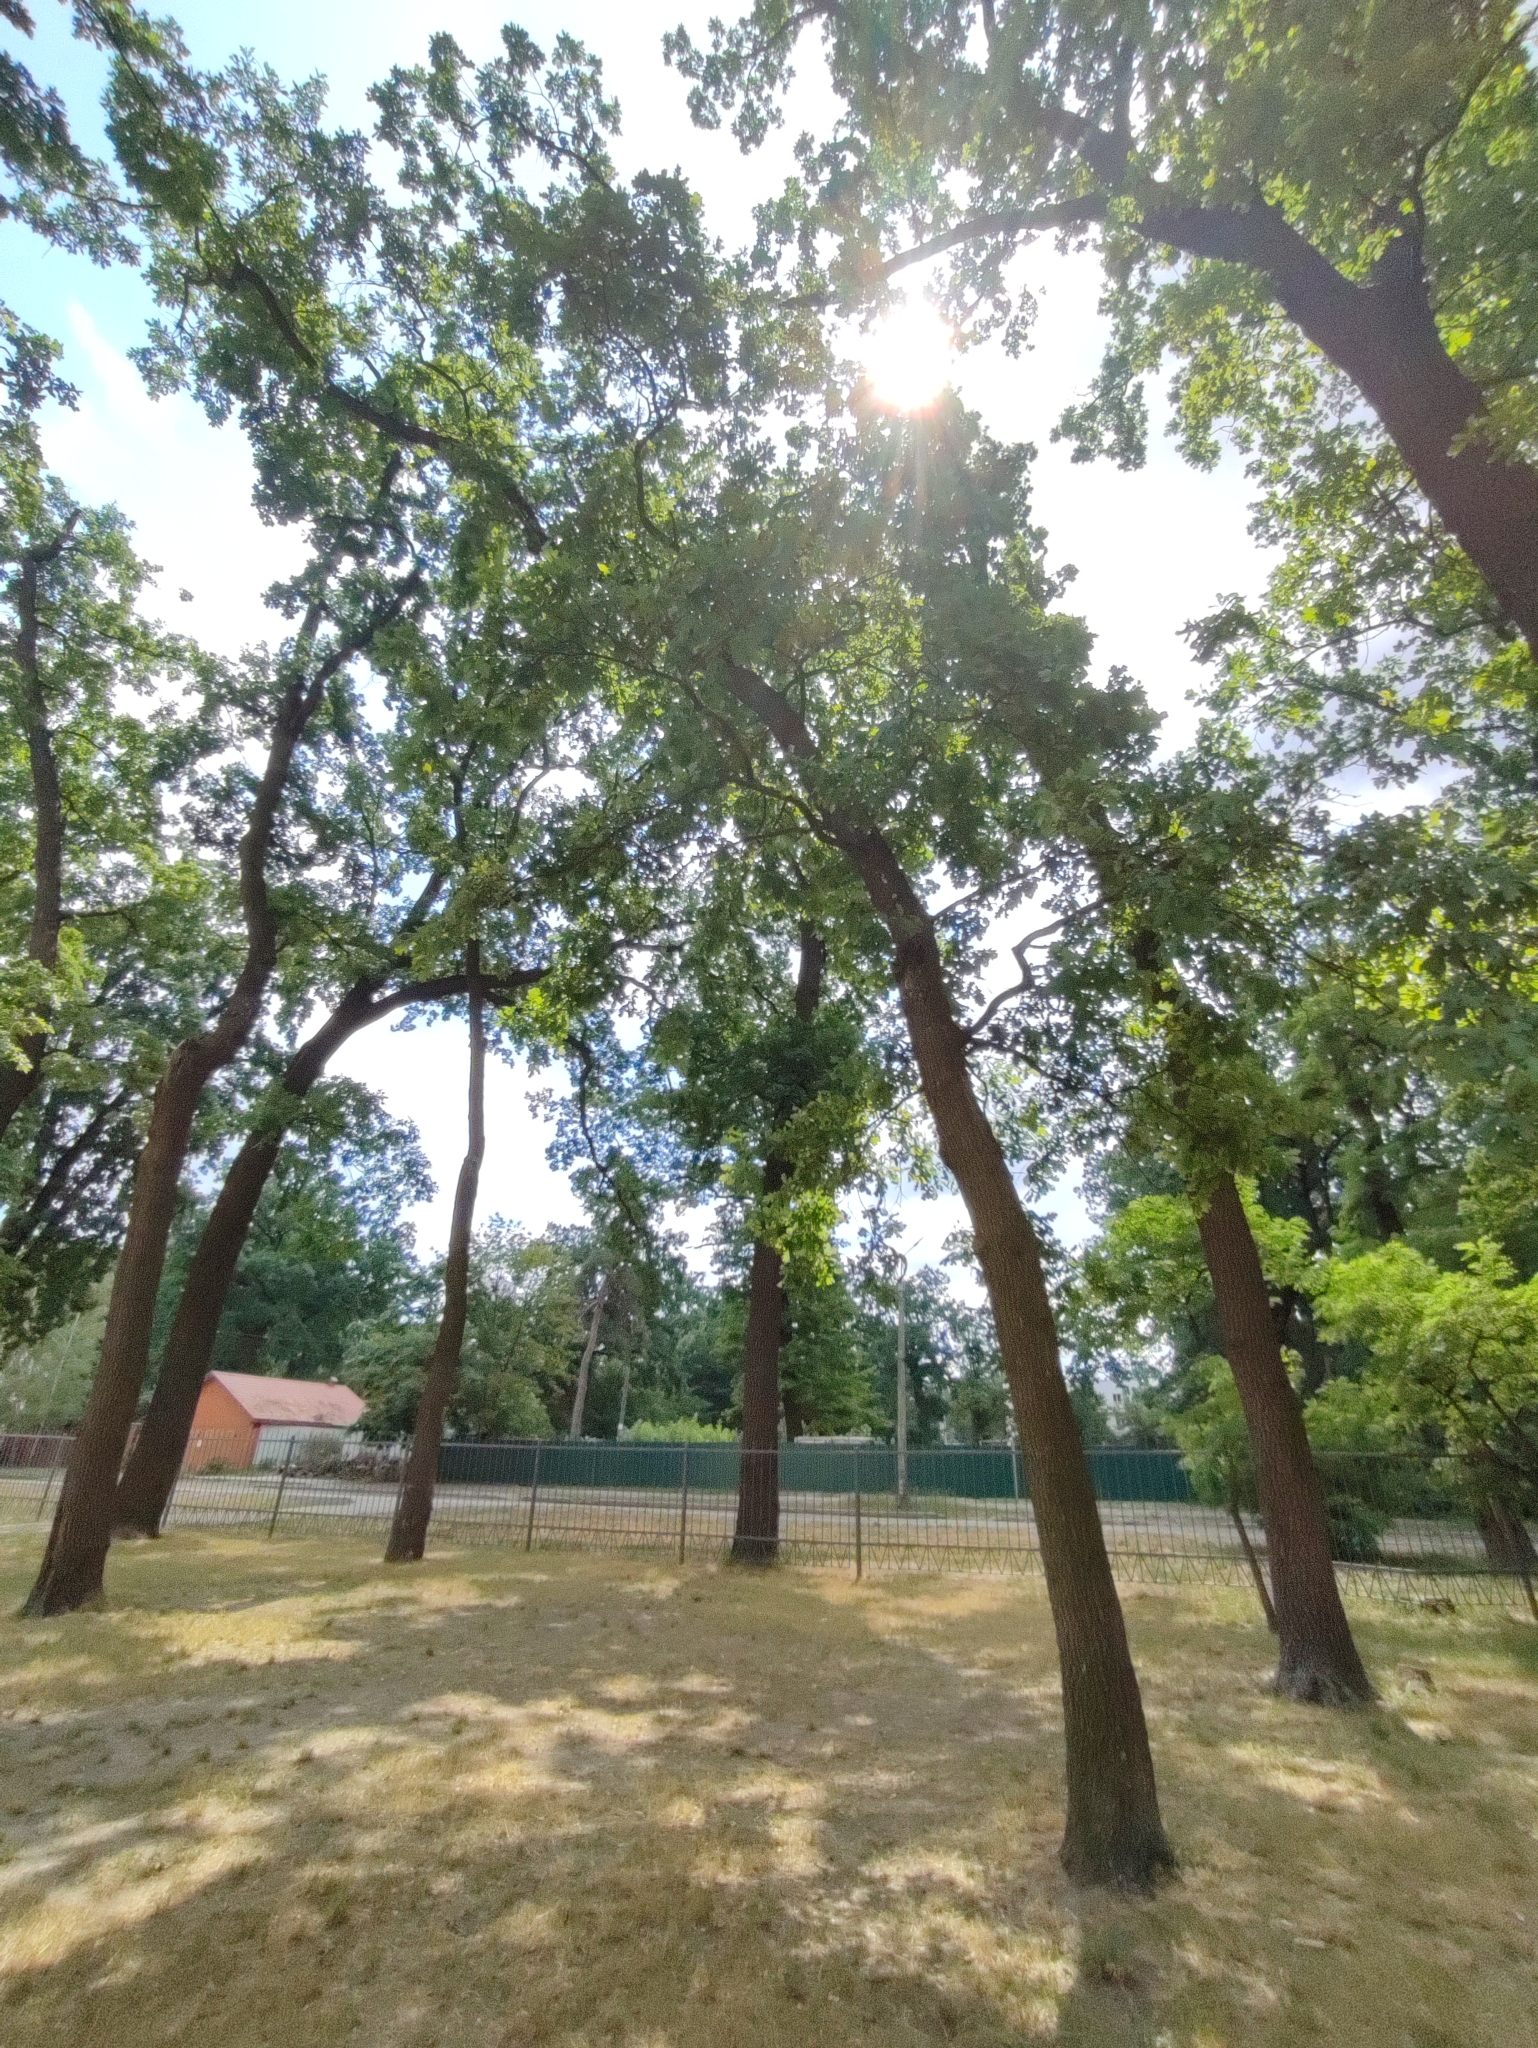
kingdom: Plantae
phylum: Tracheophyta
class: Magnoliopsida
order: Fagales
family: Fagaceae
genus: Quercus
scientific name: Quercus robur
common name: Pedunculate oak
